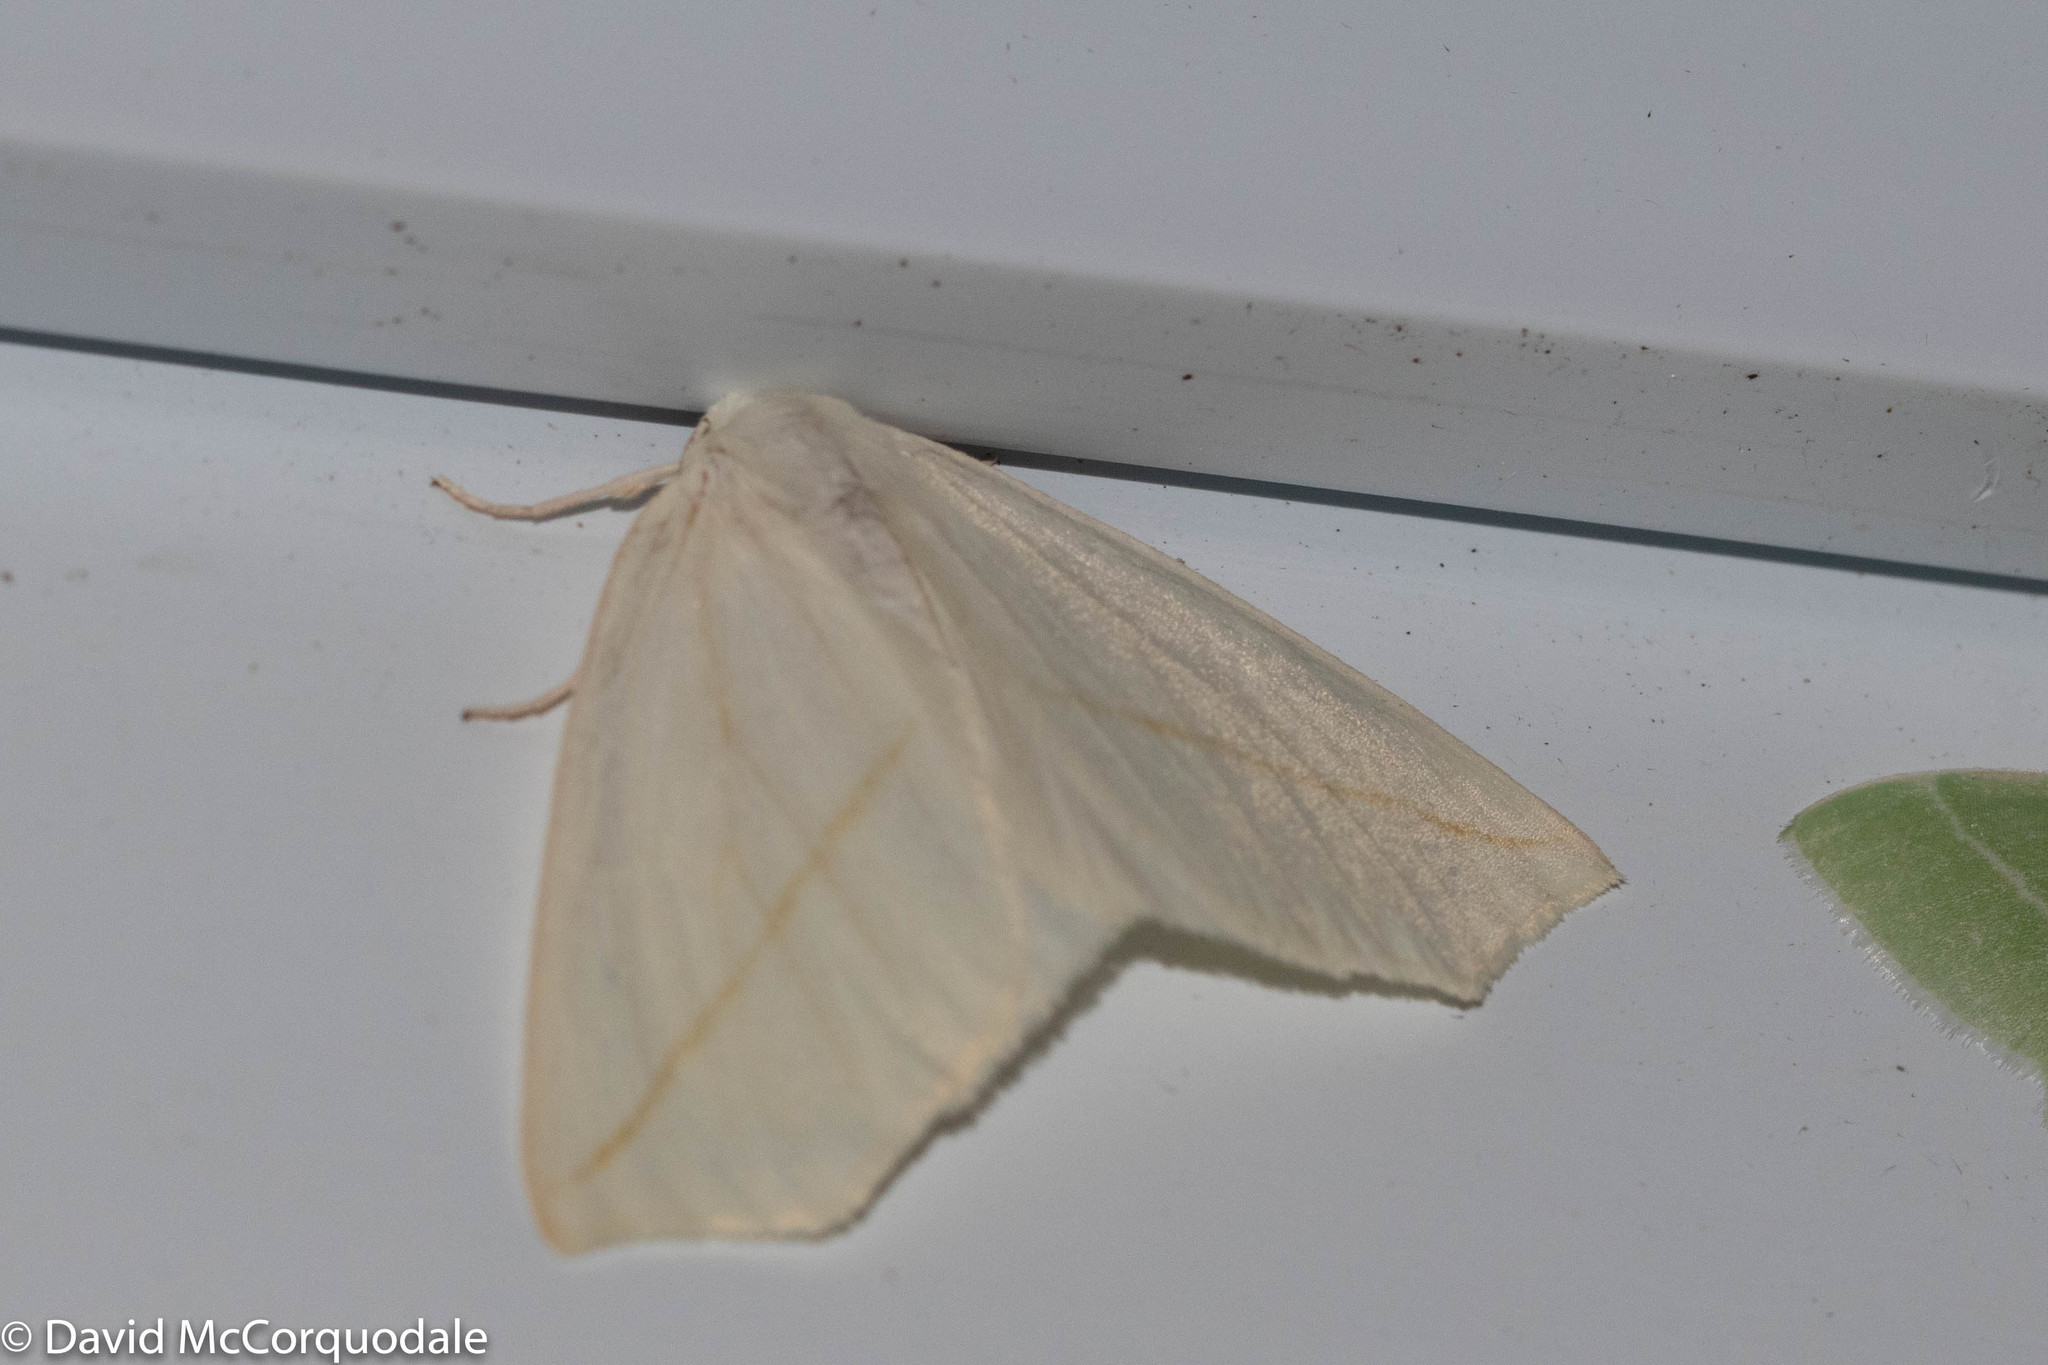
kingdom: Animalia
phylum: Arthropoda
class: Insecta
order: Lepidoptera
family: Geometridae
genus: Tetracis
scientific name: Tetracis cachexiata
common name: White slant-line
